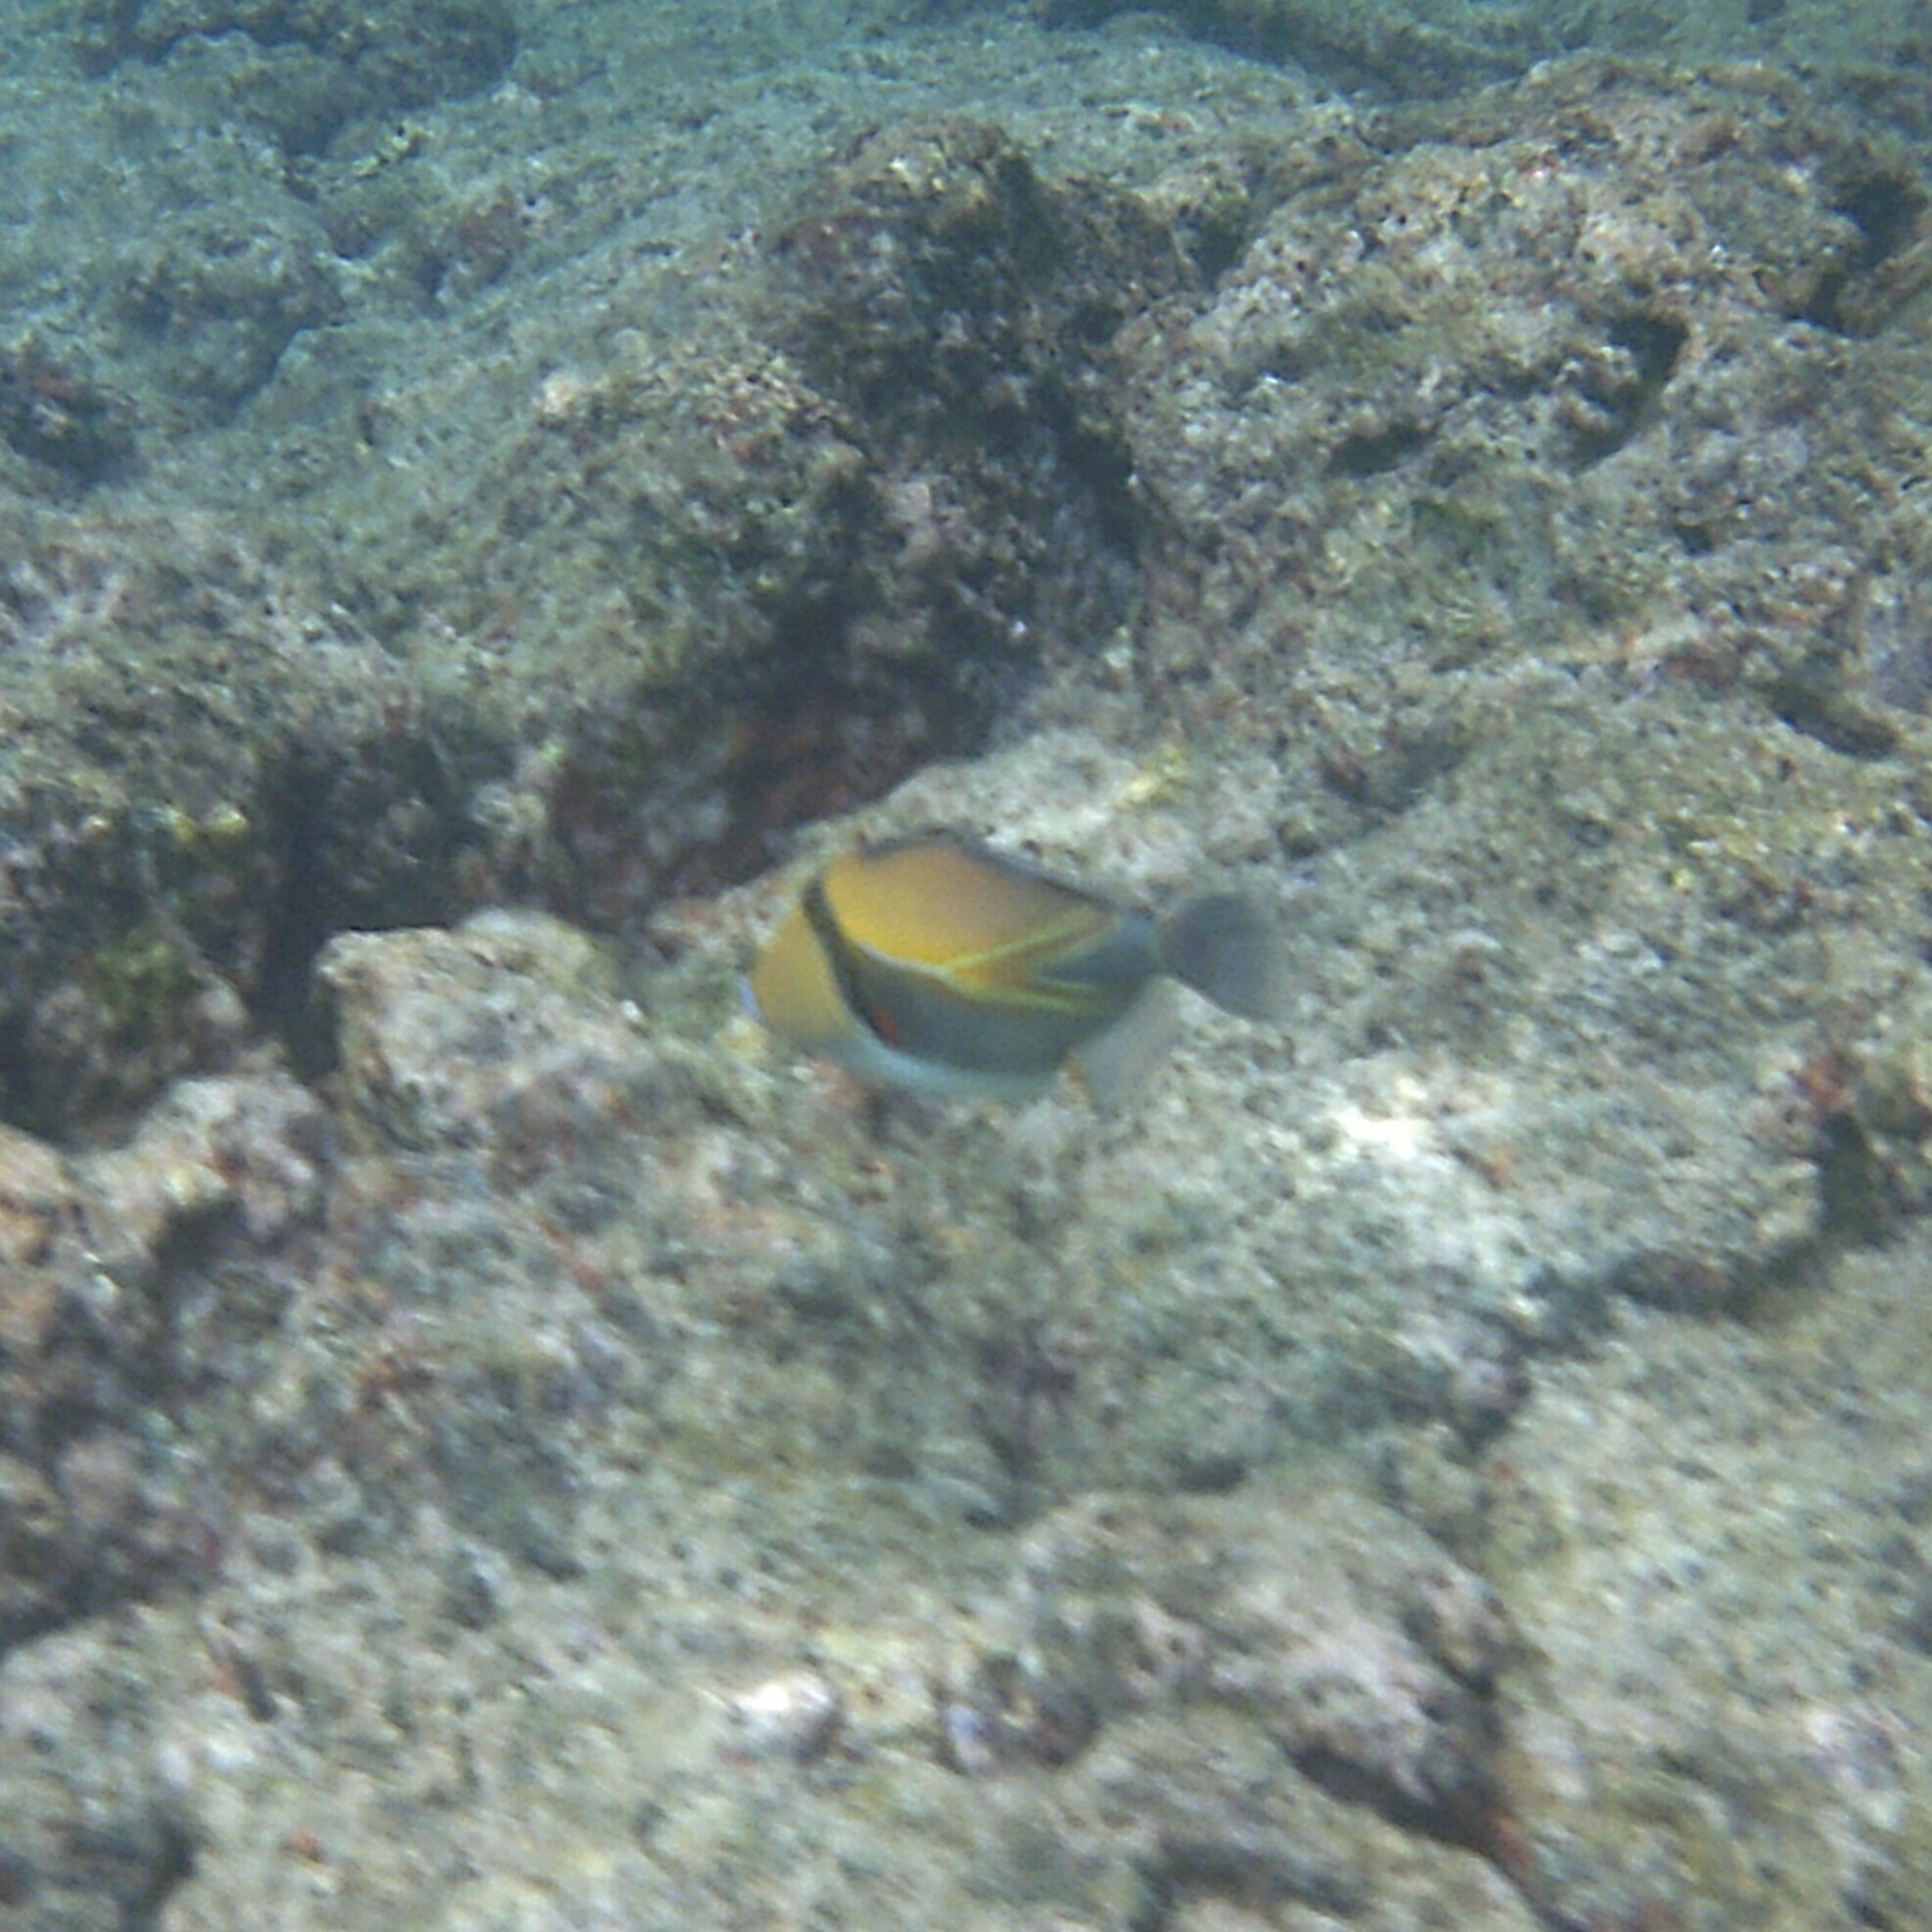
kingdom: Animalia
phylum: Chordata
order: Tetraodontiformes
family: Balistidae
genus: Rhinecanthus
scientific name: Rhinecanthus rectangulus
